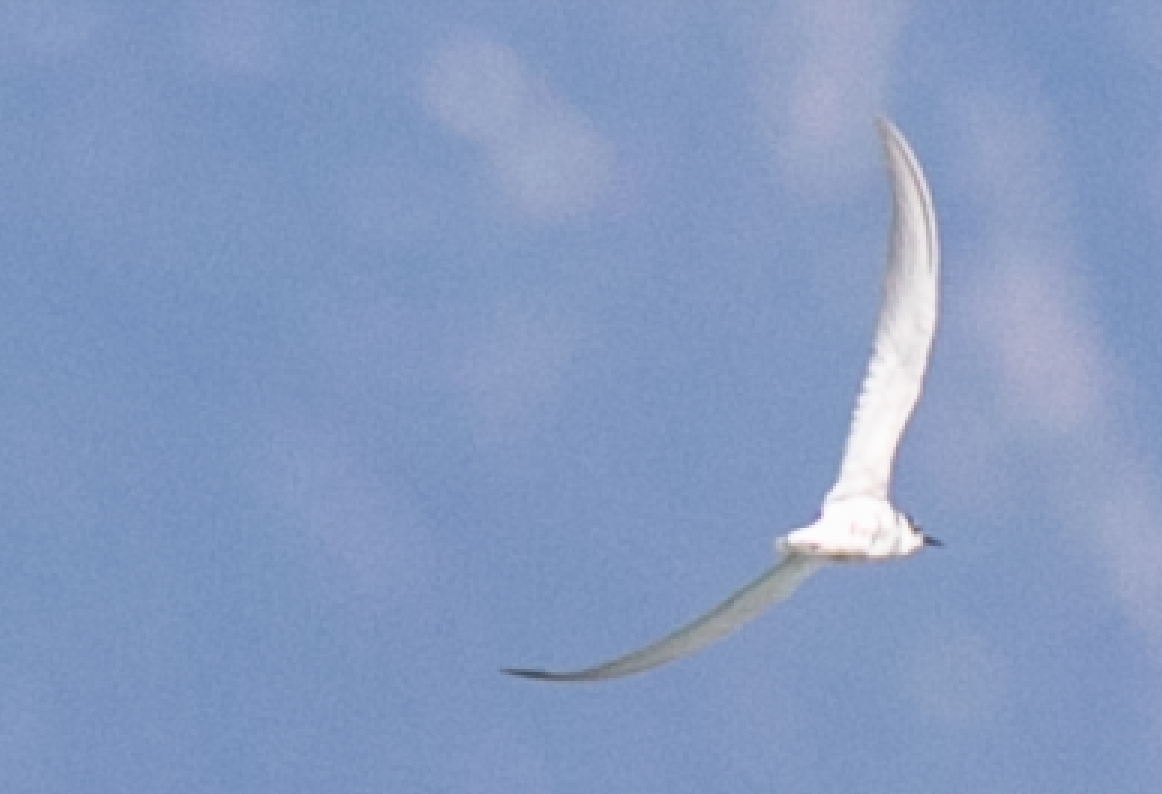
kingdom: Animalia
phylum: Chordata
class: Aves
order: Charadriiformes
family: Laridae
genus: Chlidonias
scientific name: Chlidonias hybrida
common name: Whiskered tern
